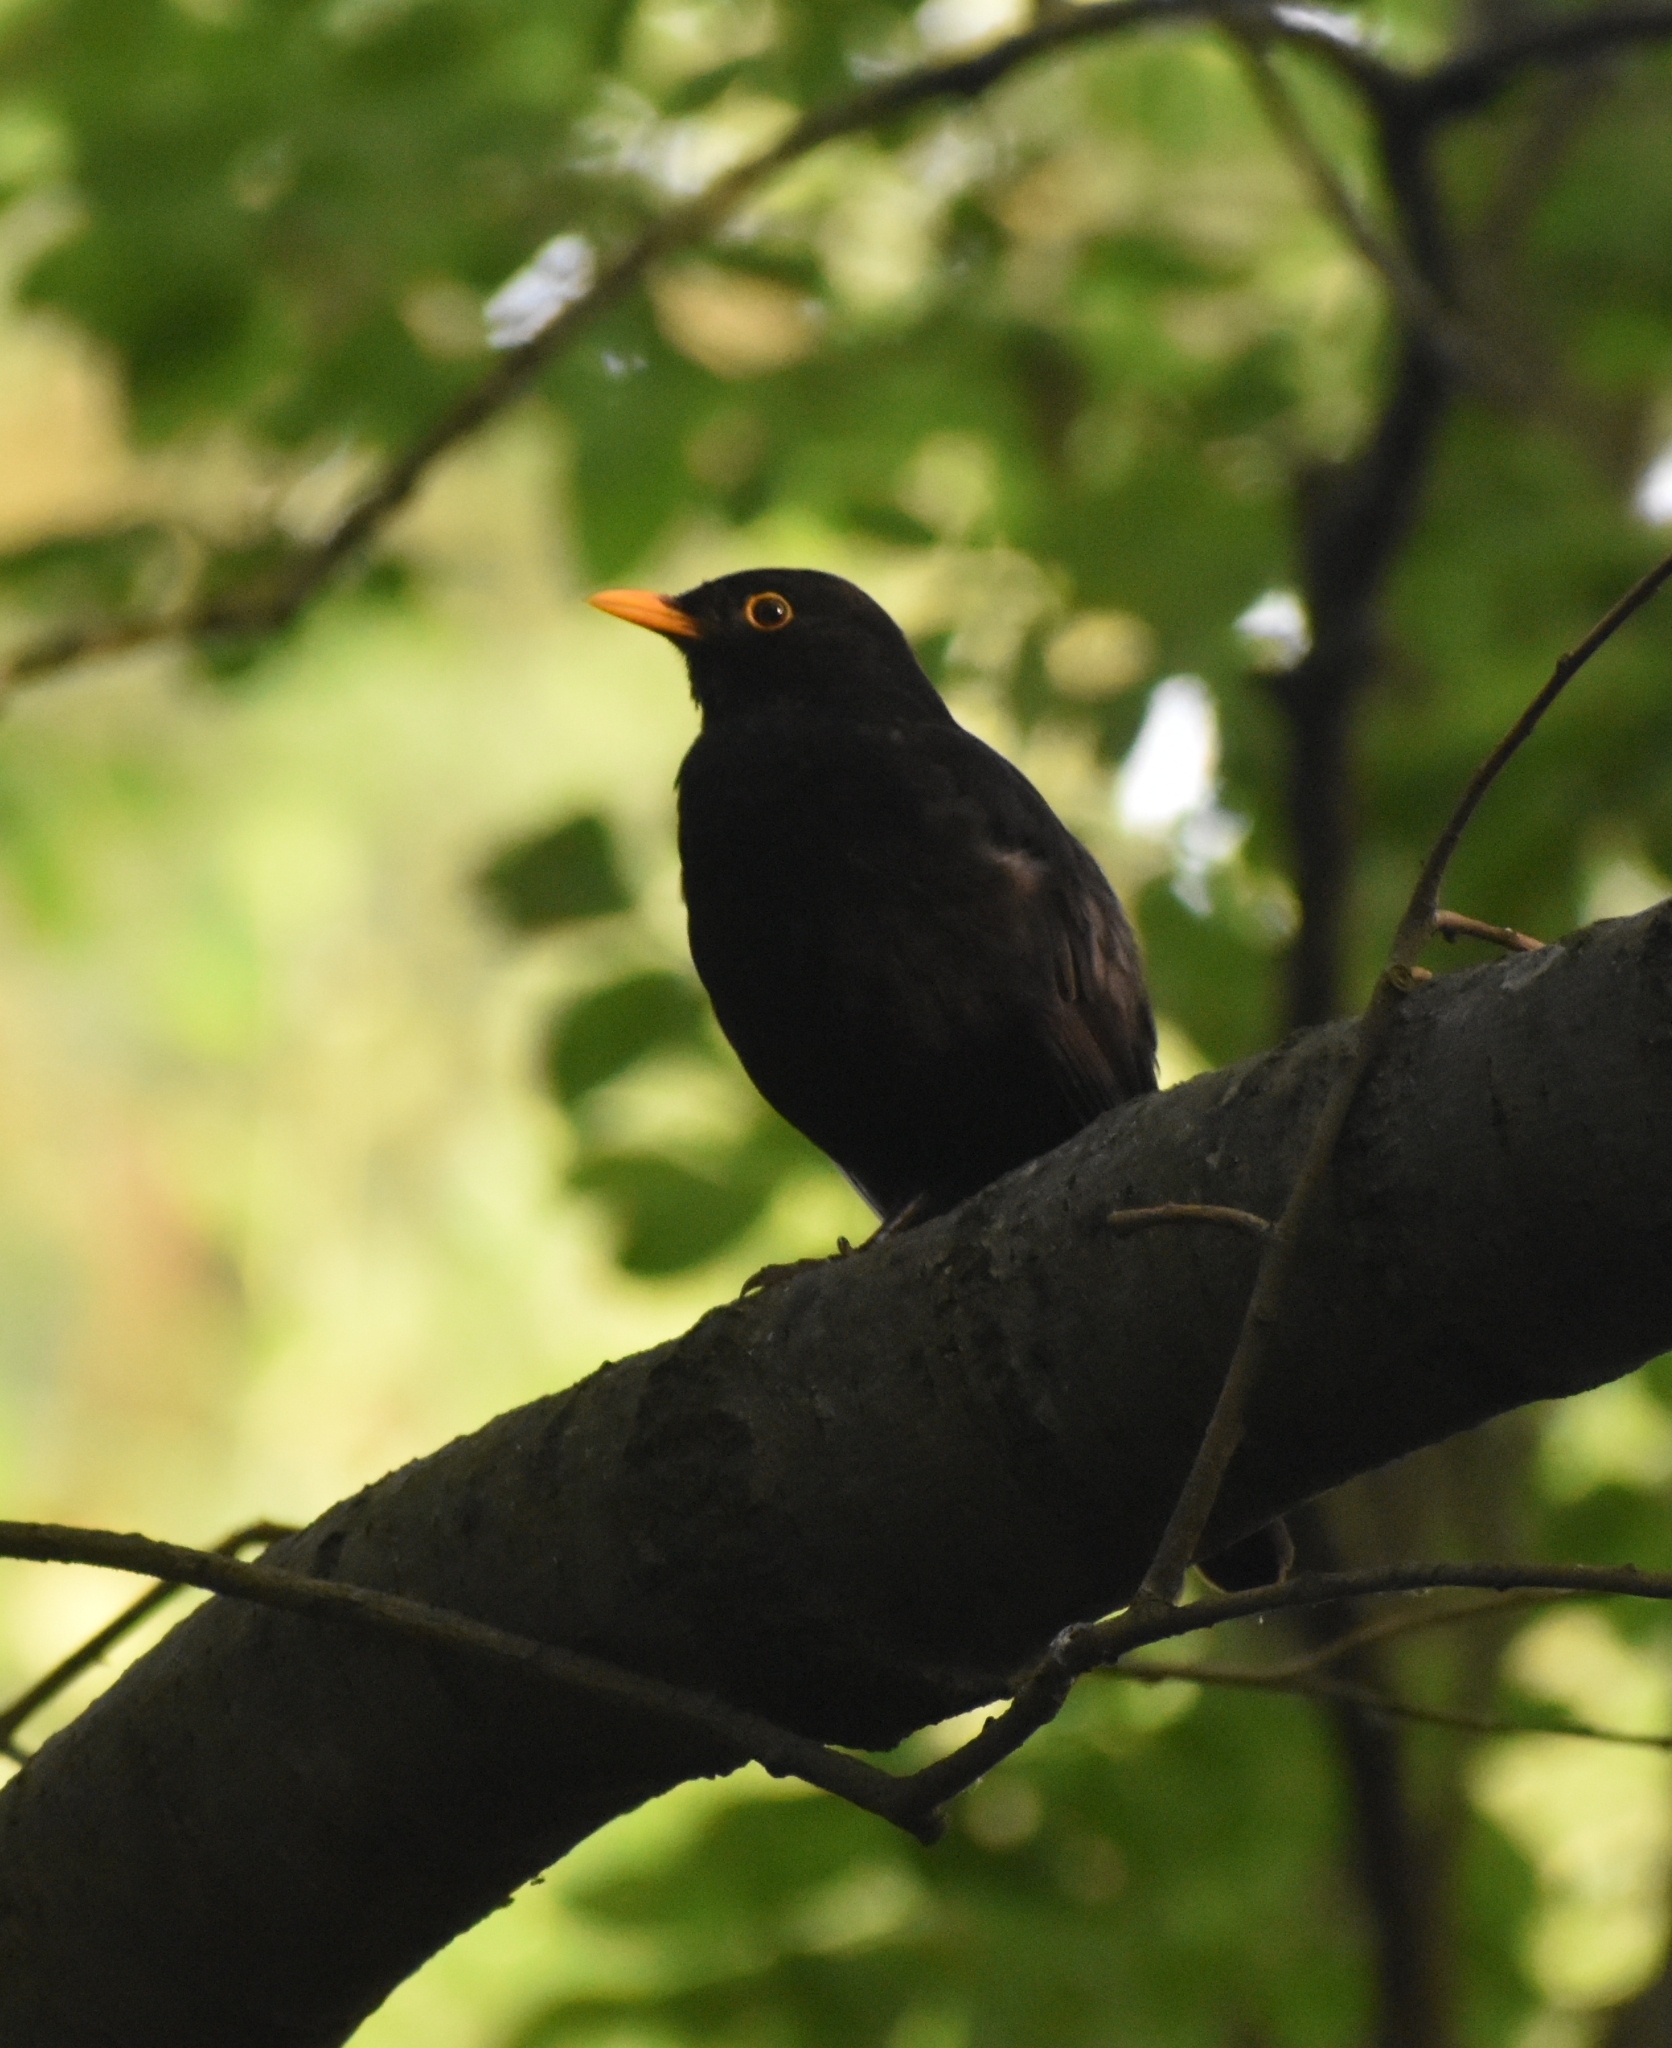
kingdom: Animalia
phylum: Chordata
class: Aves
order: Passeriformes
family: Turdidae
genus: Turdus
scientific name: Turdus merula
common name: Common blackbird
